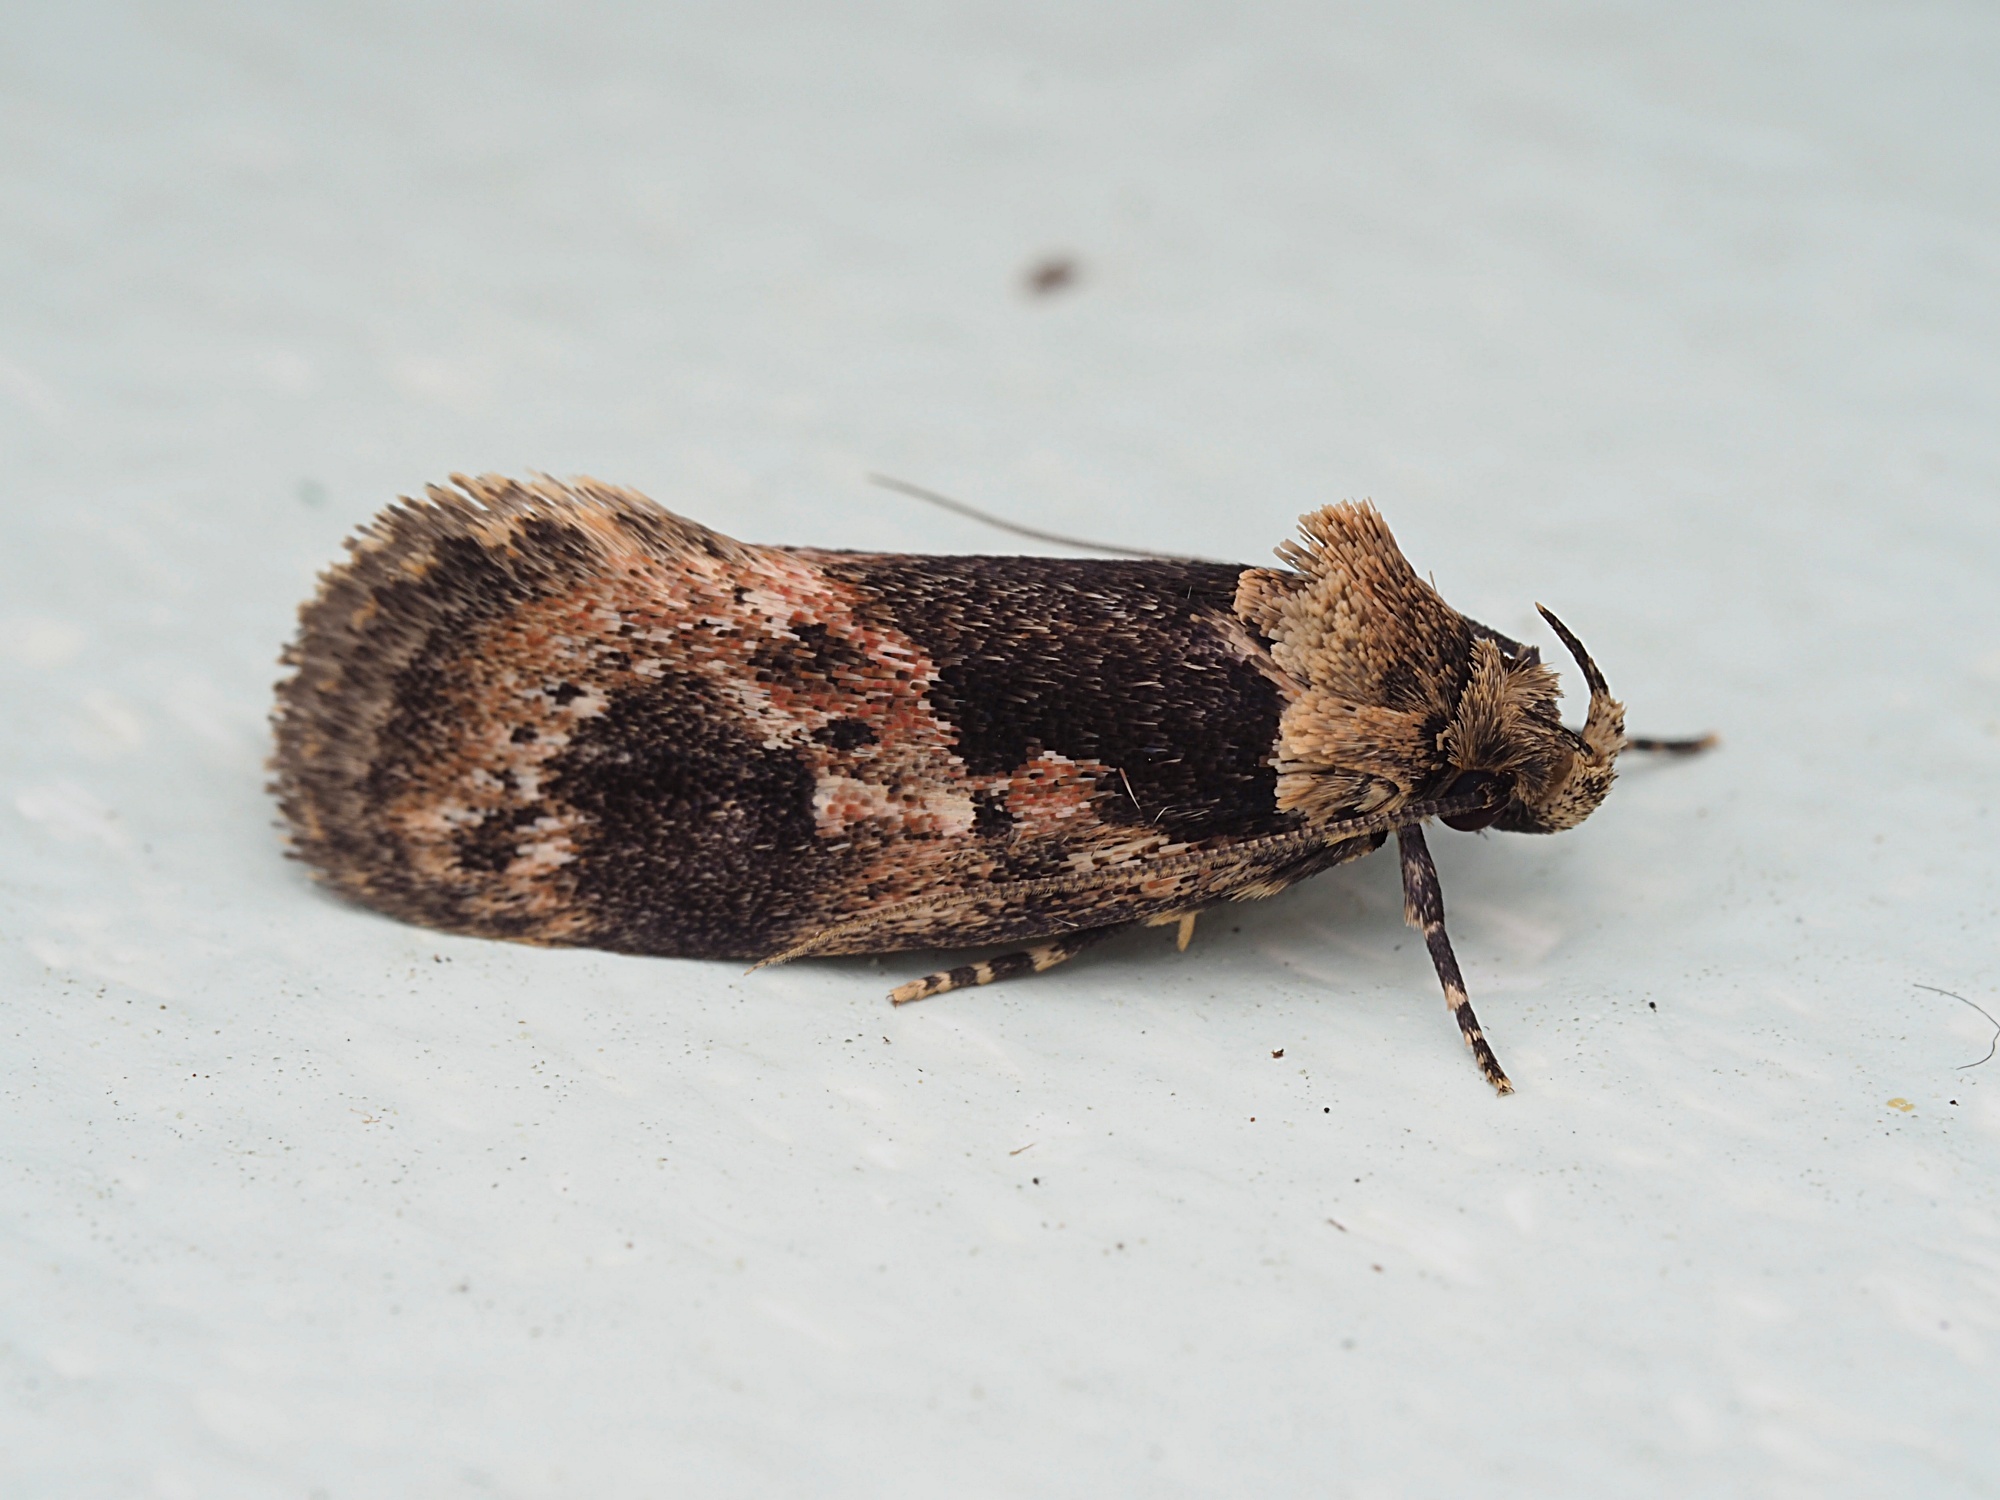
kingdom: Animalia
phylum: Arthropoda
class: Insecta
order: Lepidoptera
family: Oecophoridae
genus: Barea
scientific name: Barea consignatella
